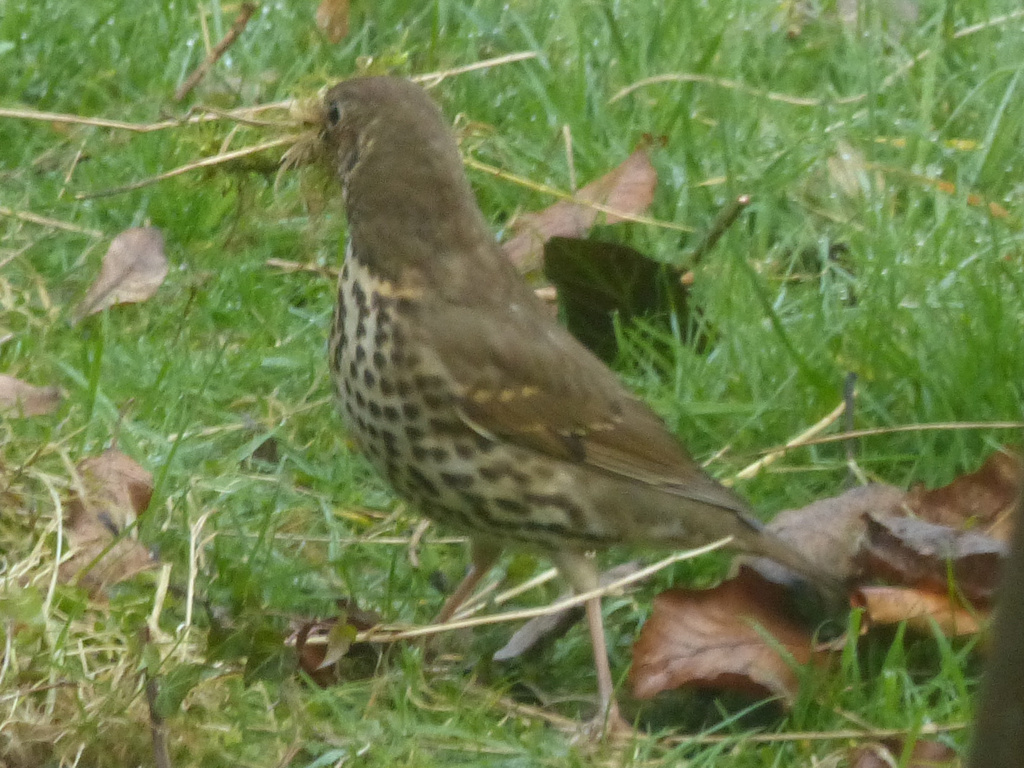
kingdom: Animalia
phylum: Chordata
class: Aves
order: Passeriformes
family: Turdidae
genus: Turdus
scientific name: Turdus philomelos
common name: Song thrush
